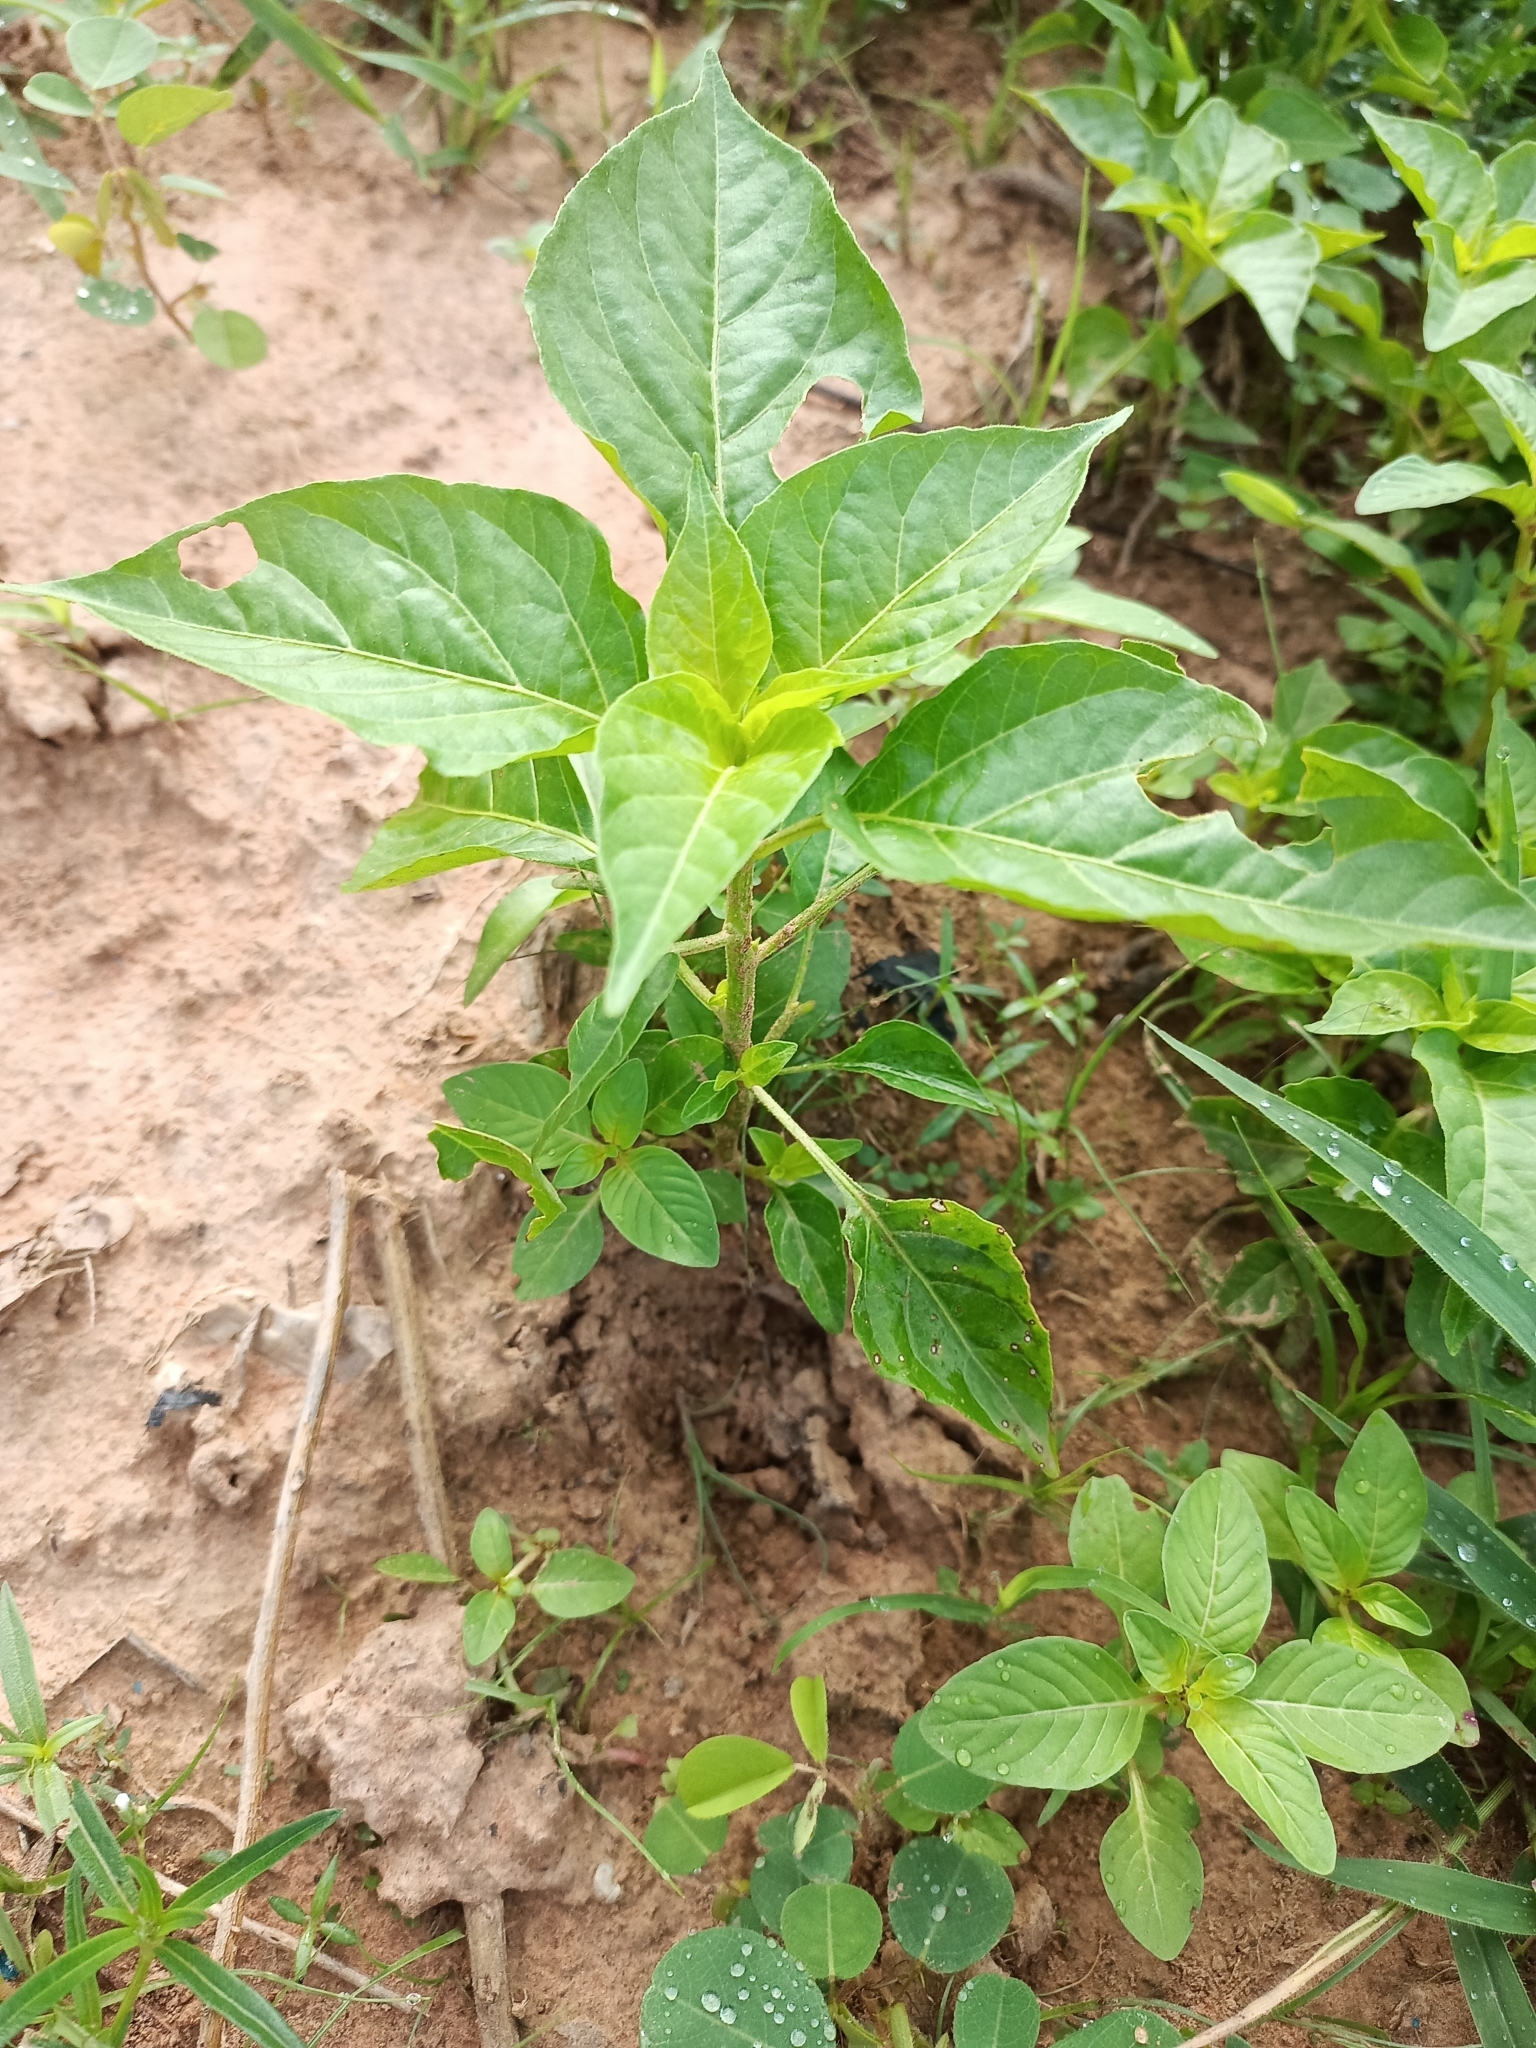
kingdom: Plantae
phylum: Tracheophyta
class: Magnoliopsida
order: Solanales
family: Solanaceae
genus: Capsicum
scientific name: Capsicum annuum
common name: Sweet pepper
